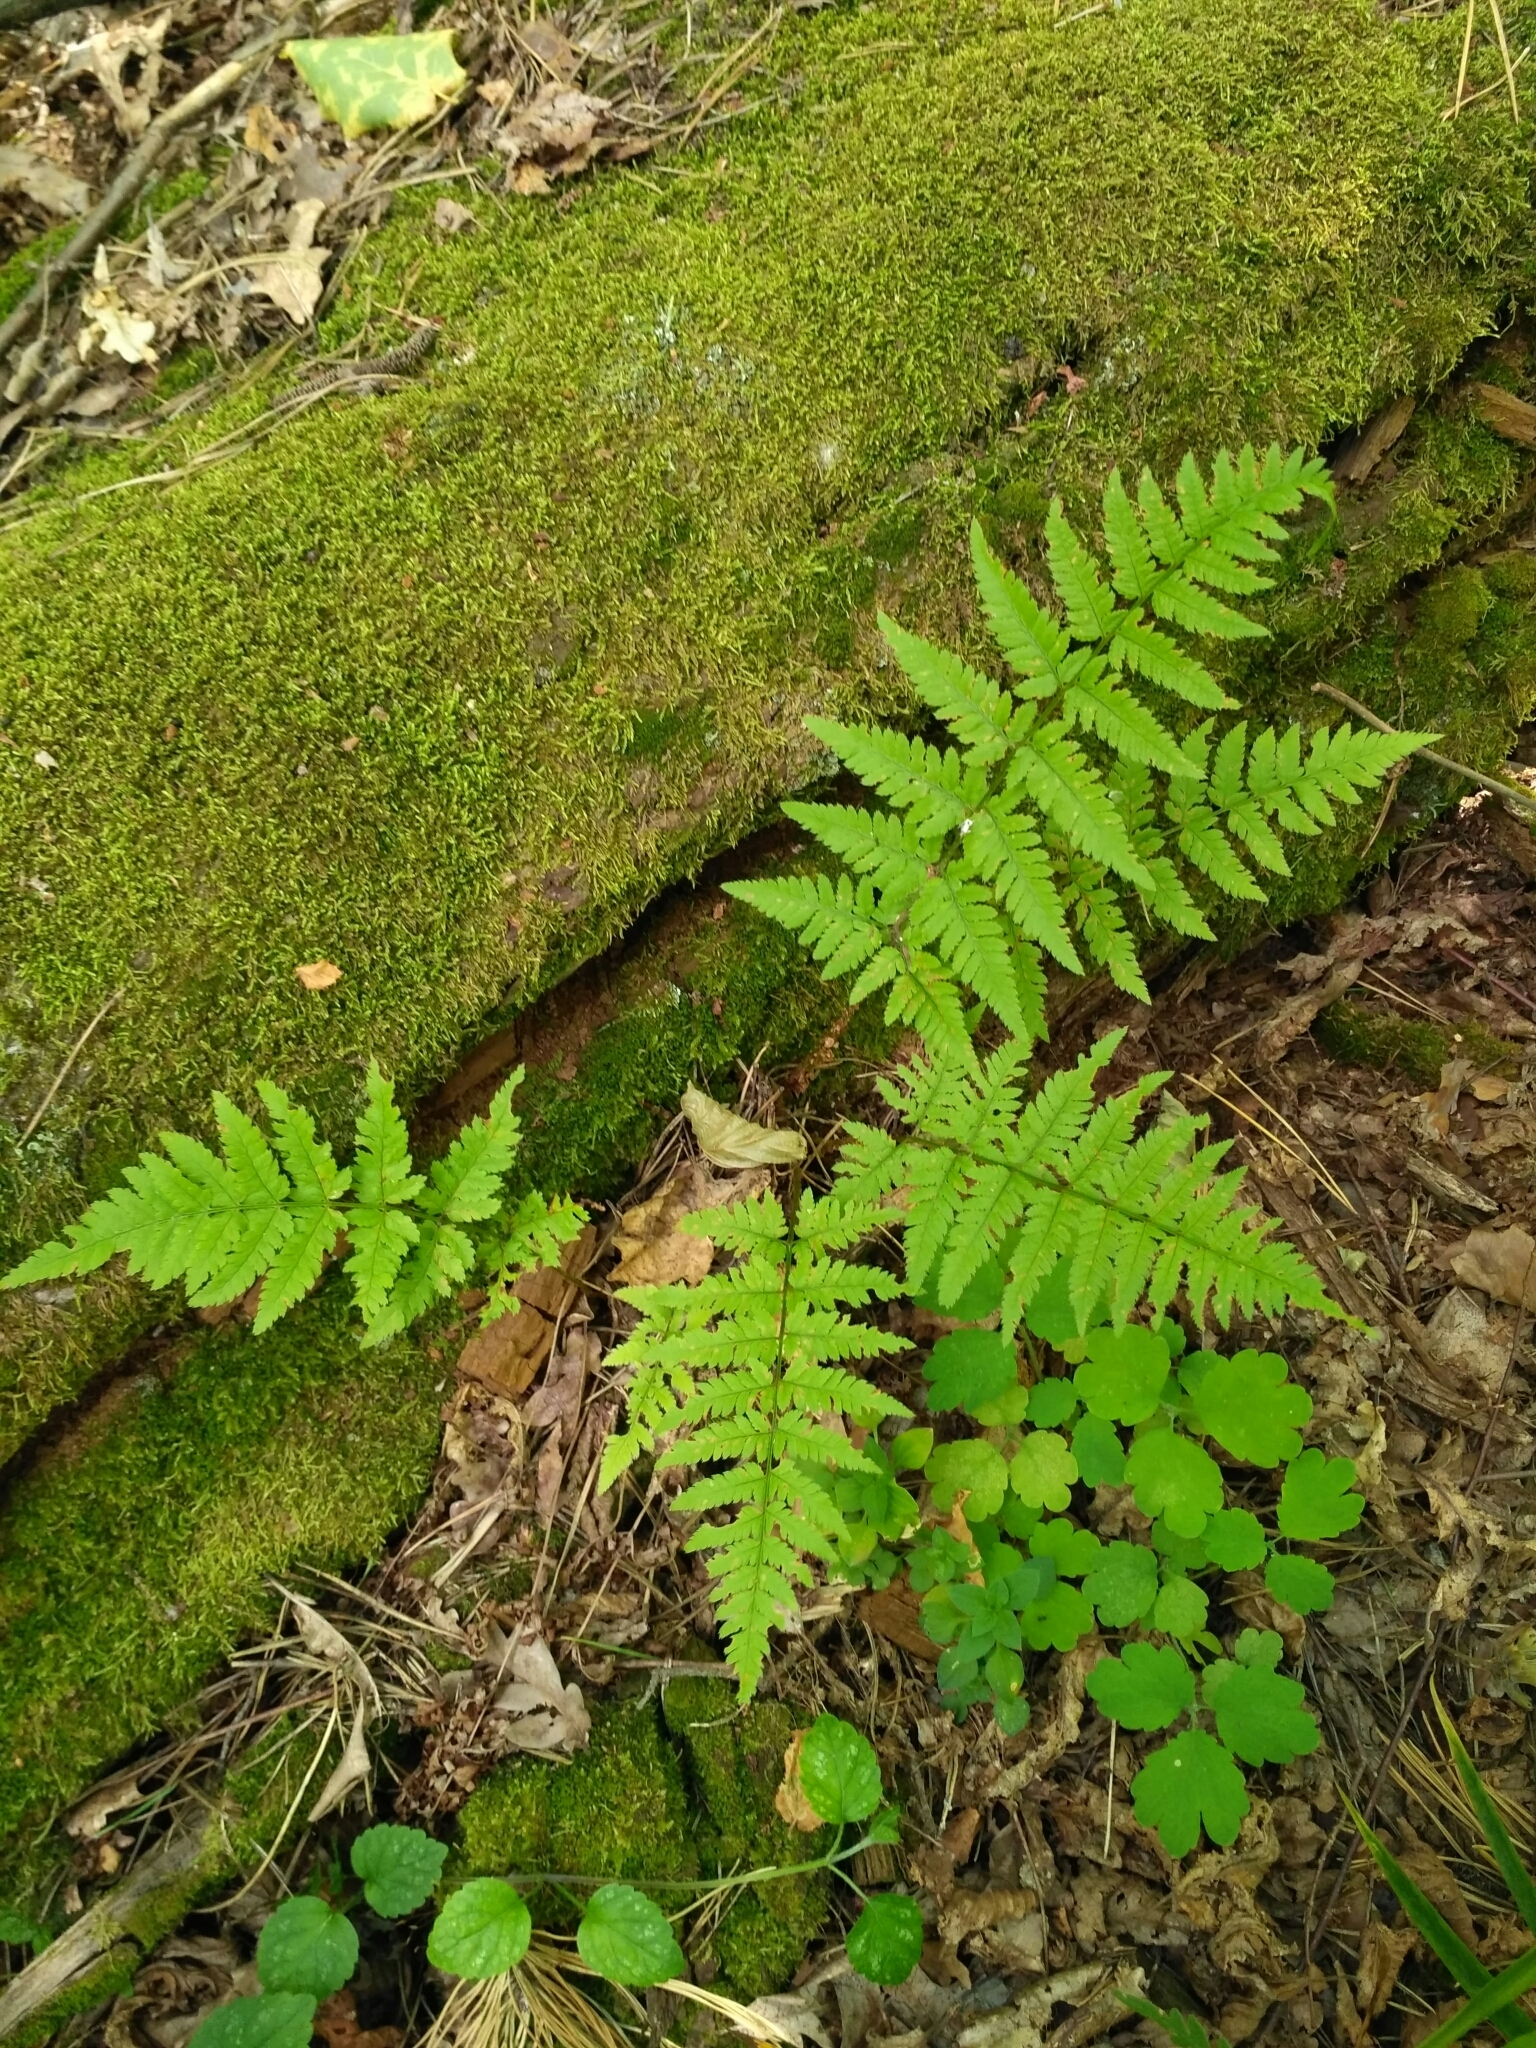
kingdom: Plantae
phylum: Tracheophyta
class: Polypodiopsida
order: Polypodiales
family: Dryopteridaceae
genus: Dryopteris
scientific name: Dryopteris carthusiana
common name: Narrow buckler-fern
